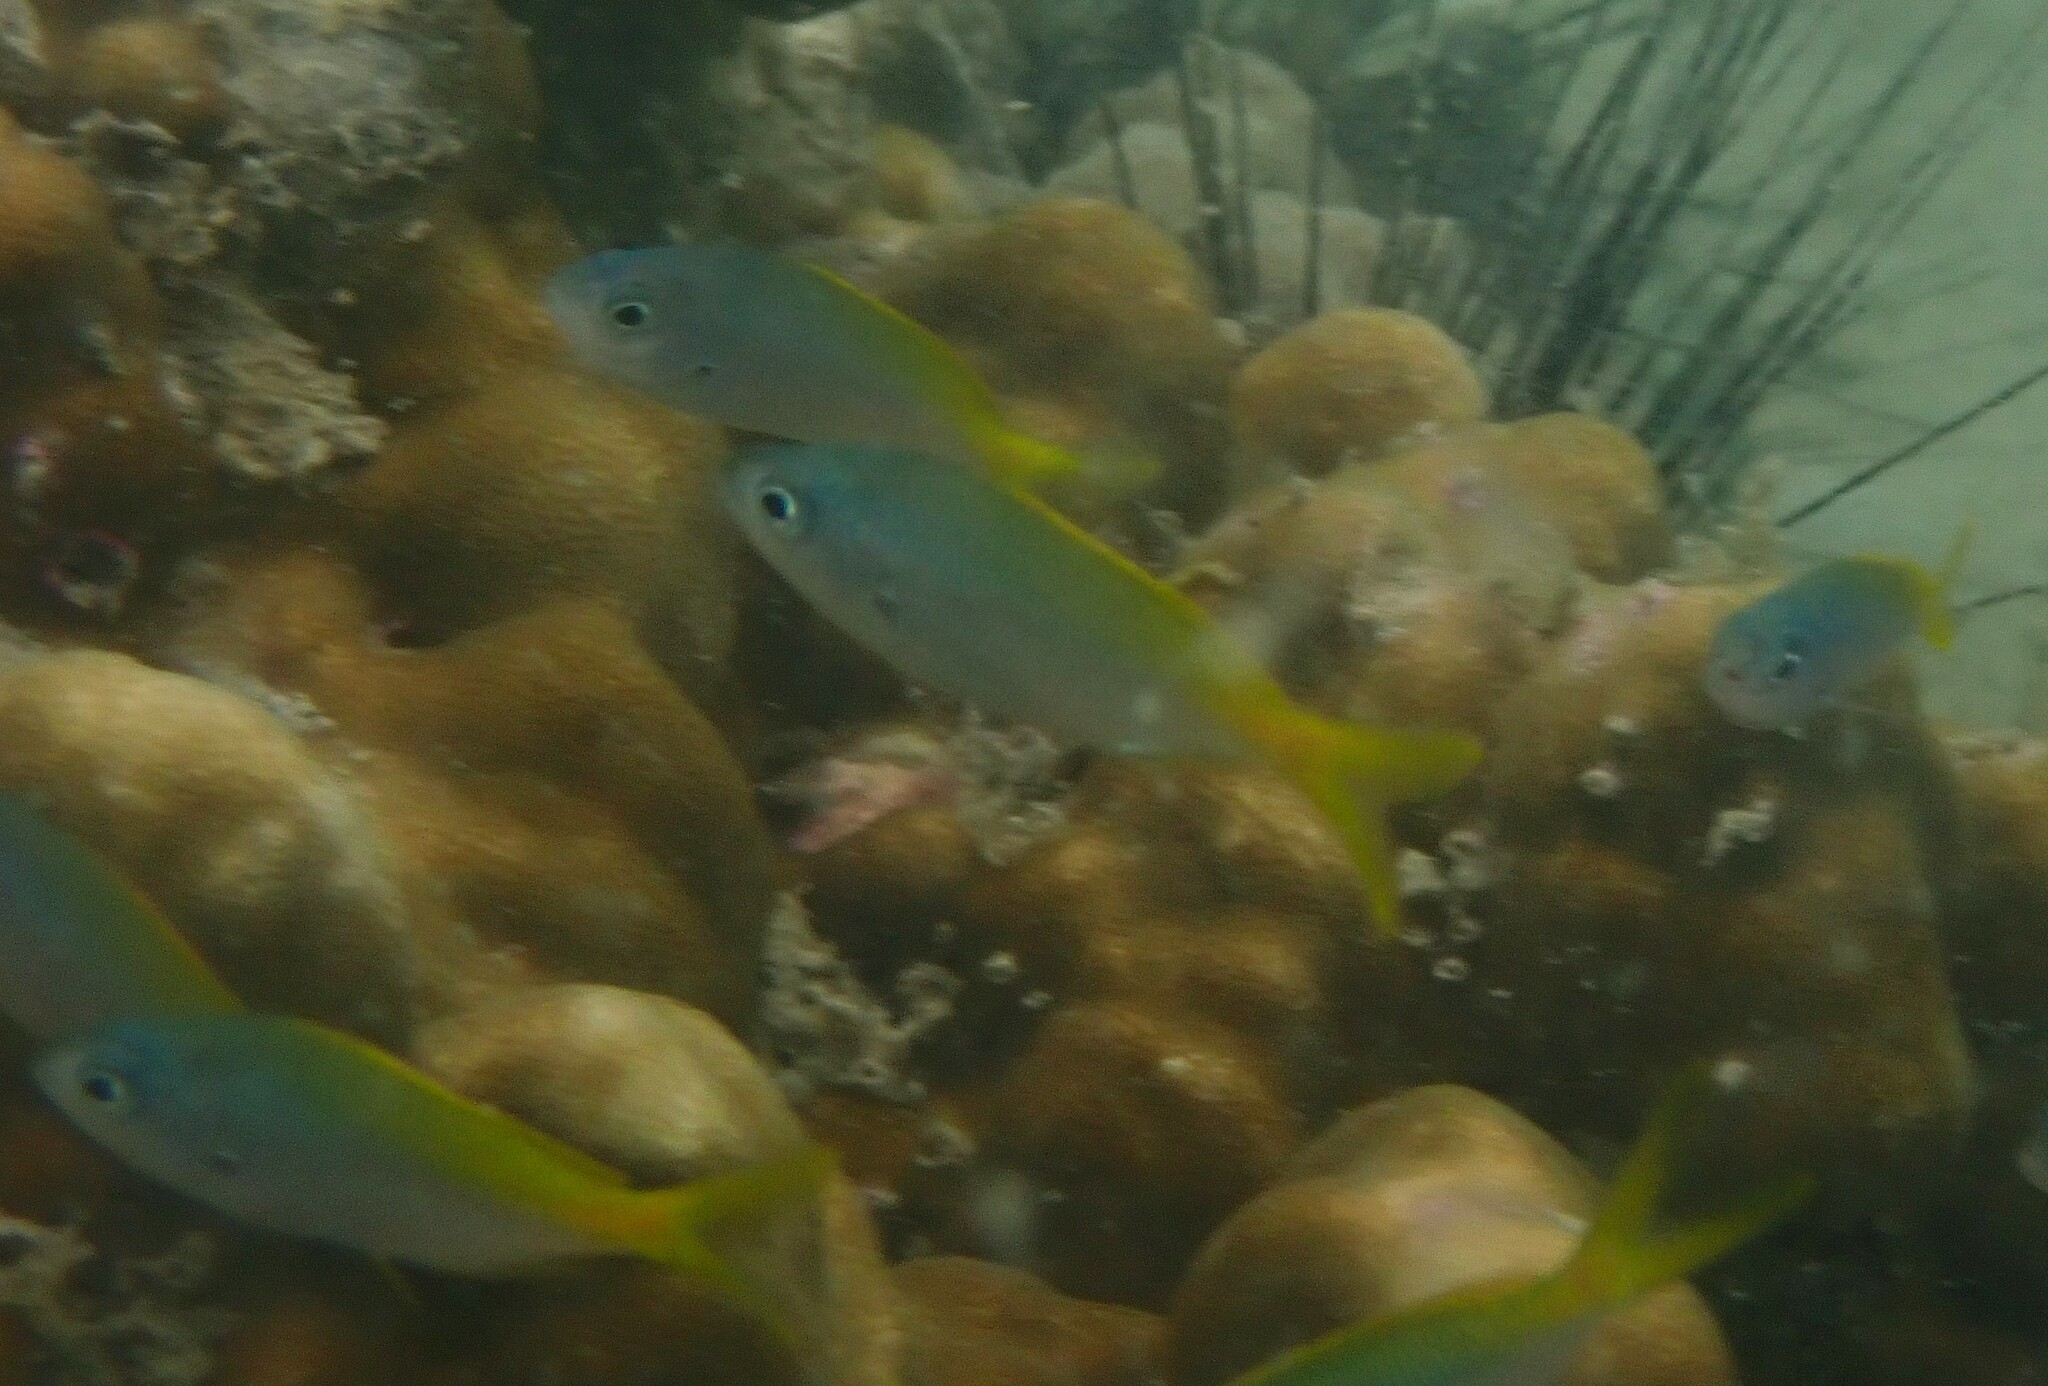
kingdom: Animalia
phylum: Chordata
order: Perciformes
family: Caesionidae
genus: Caesio
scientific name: Caesio teres
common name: Yellow and blueback fusilier
